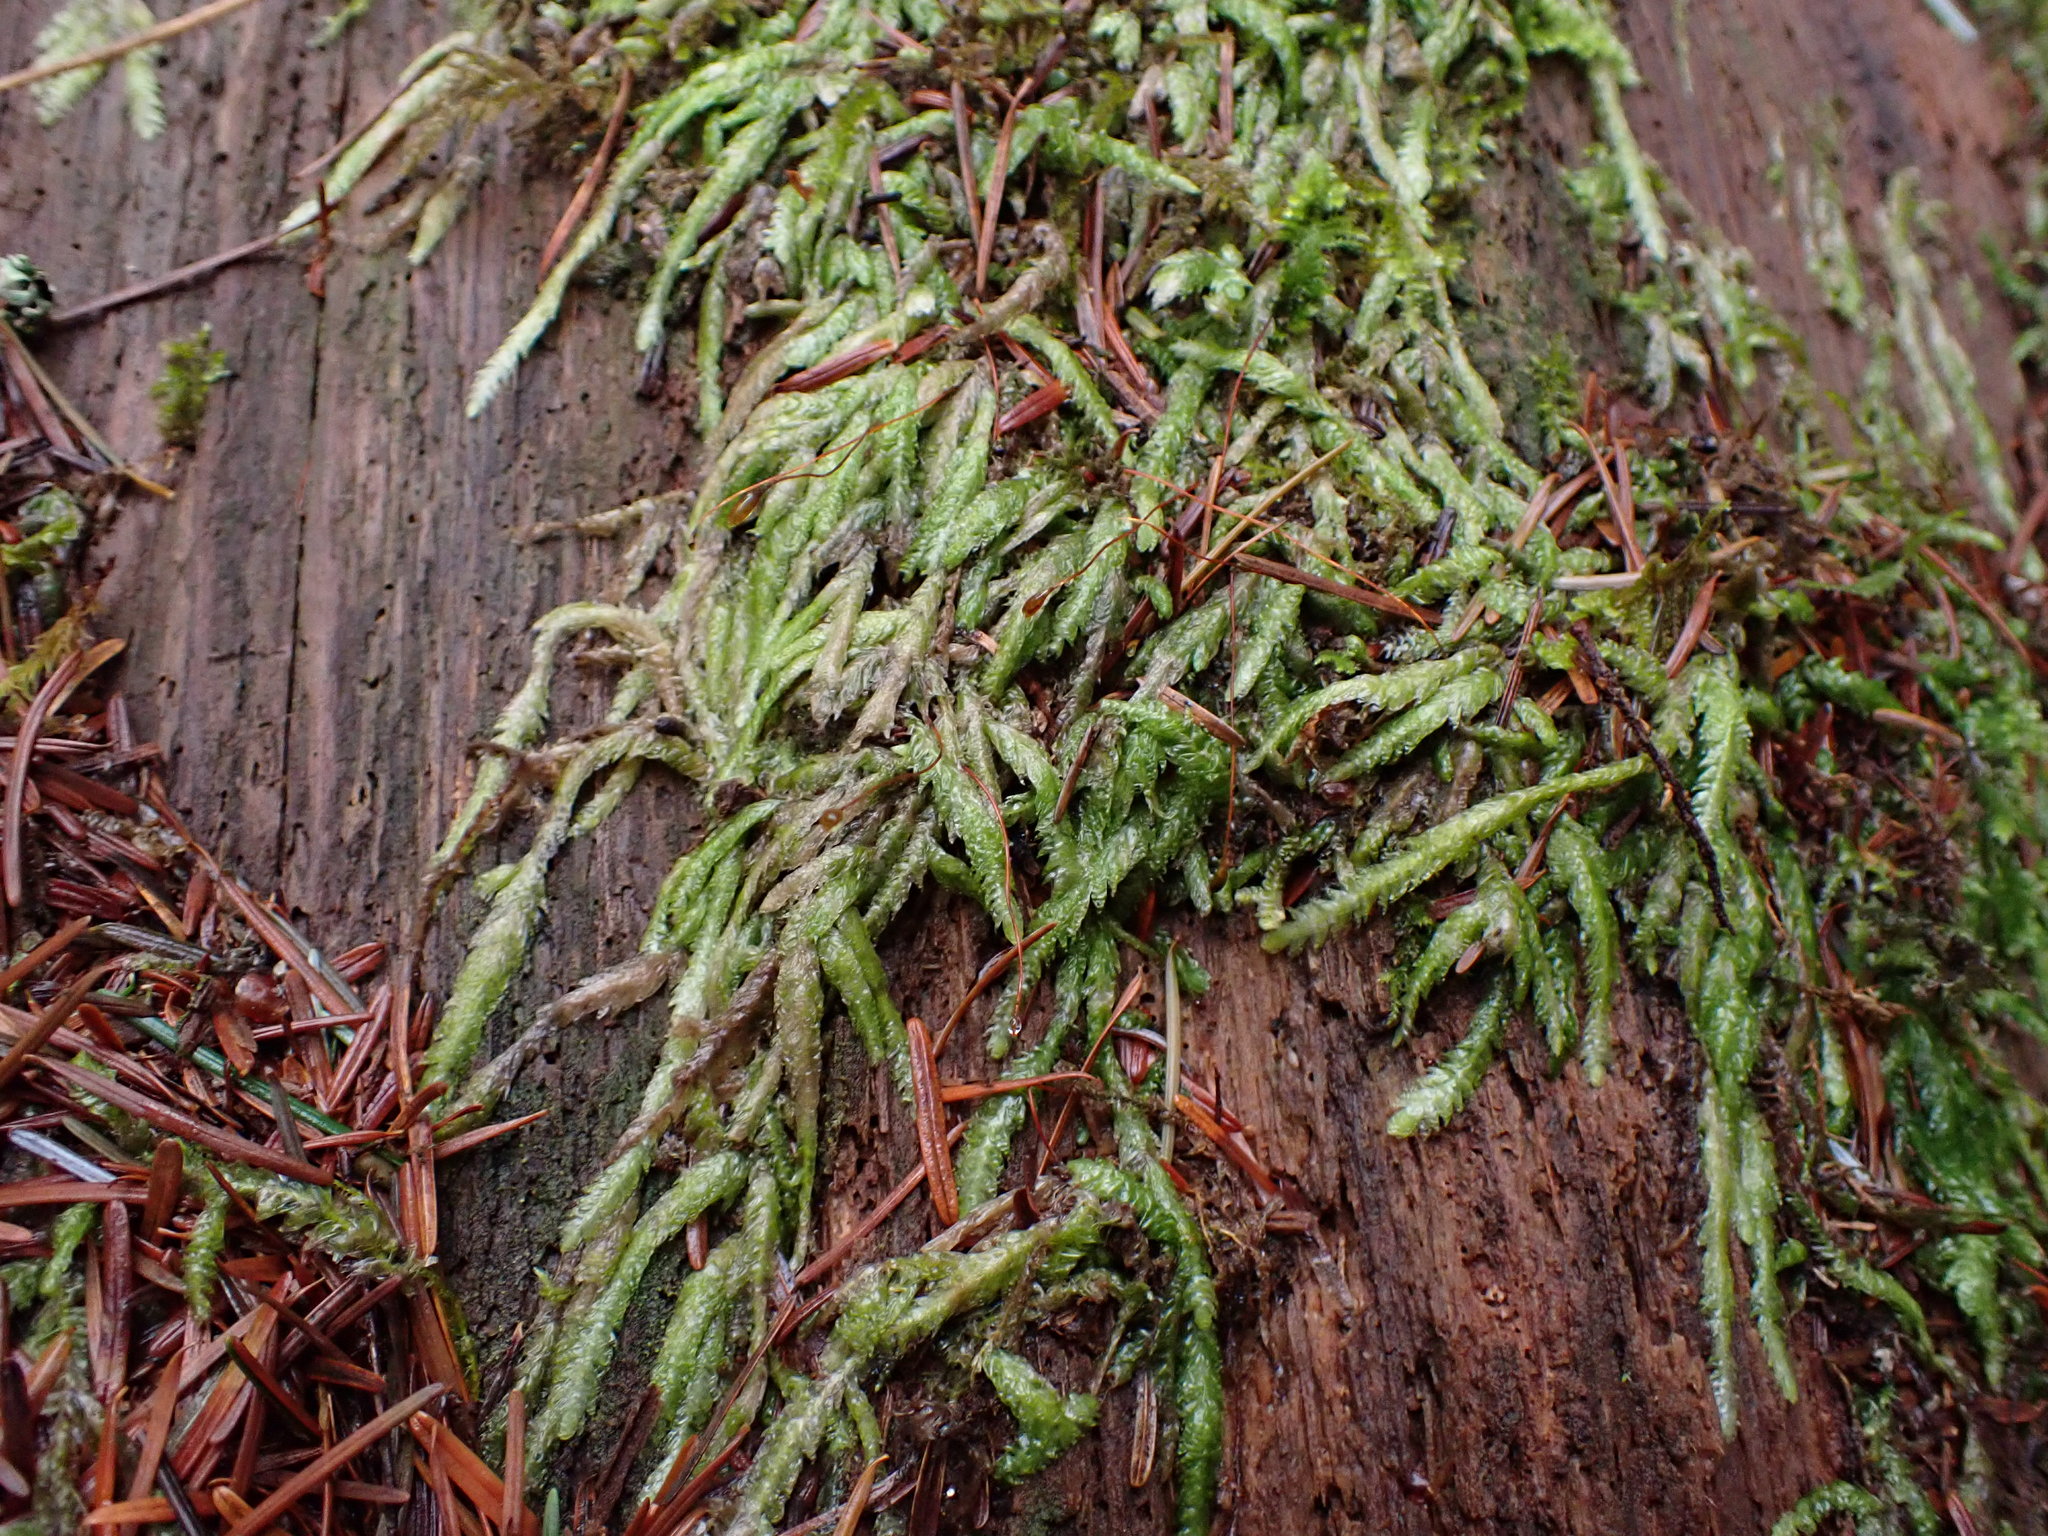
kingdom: Plantae
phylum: Bryophyta
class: Bryopsida
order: Hypnales
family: Plagiotheciaceae
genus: Plagiothecium
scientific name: Plagiothecium undulatum
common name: Waved silk-moss
